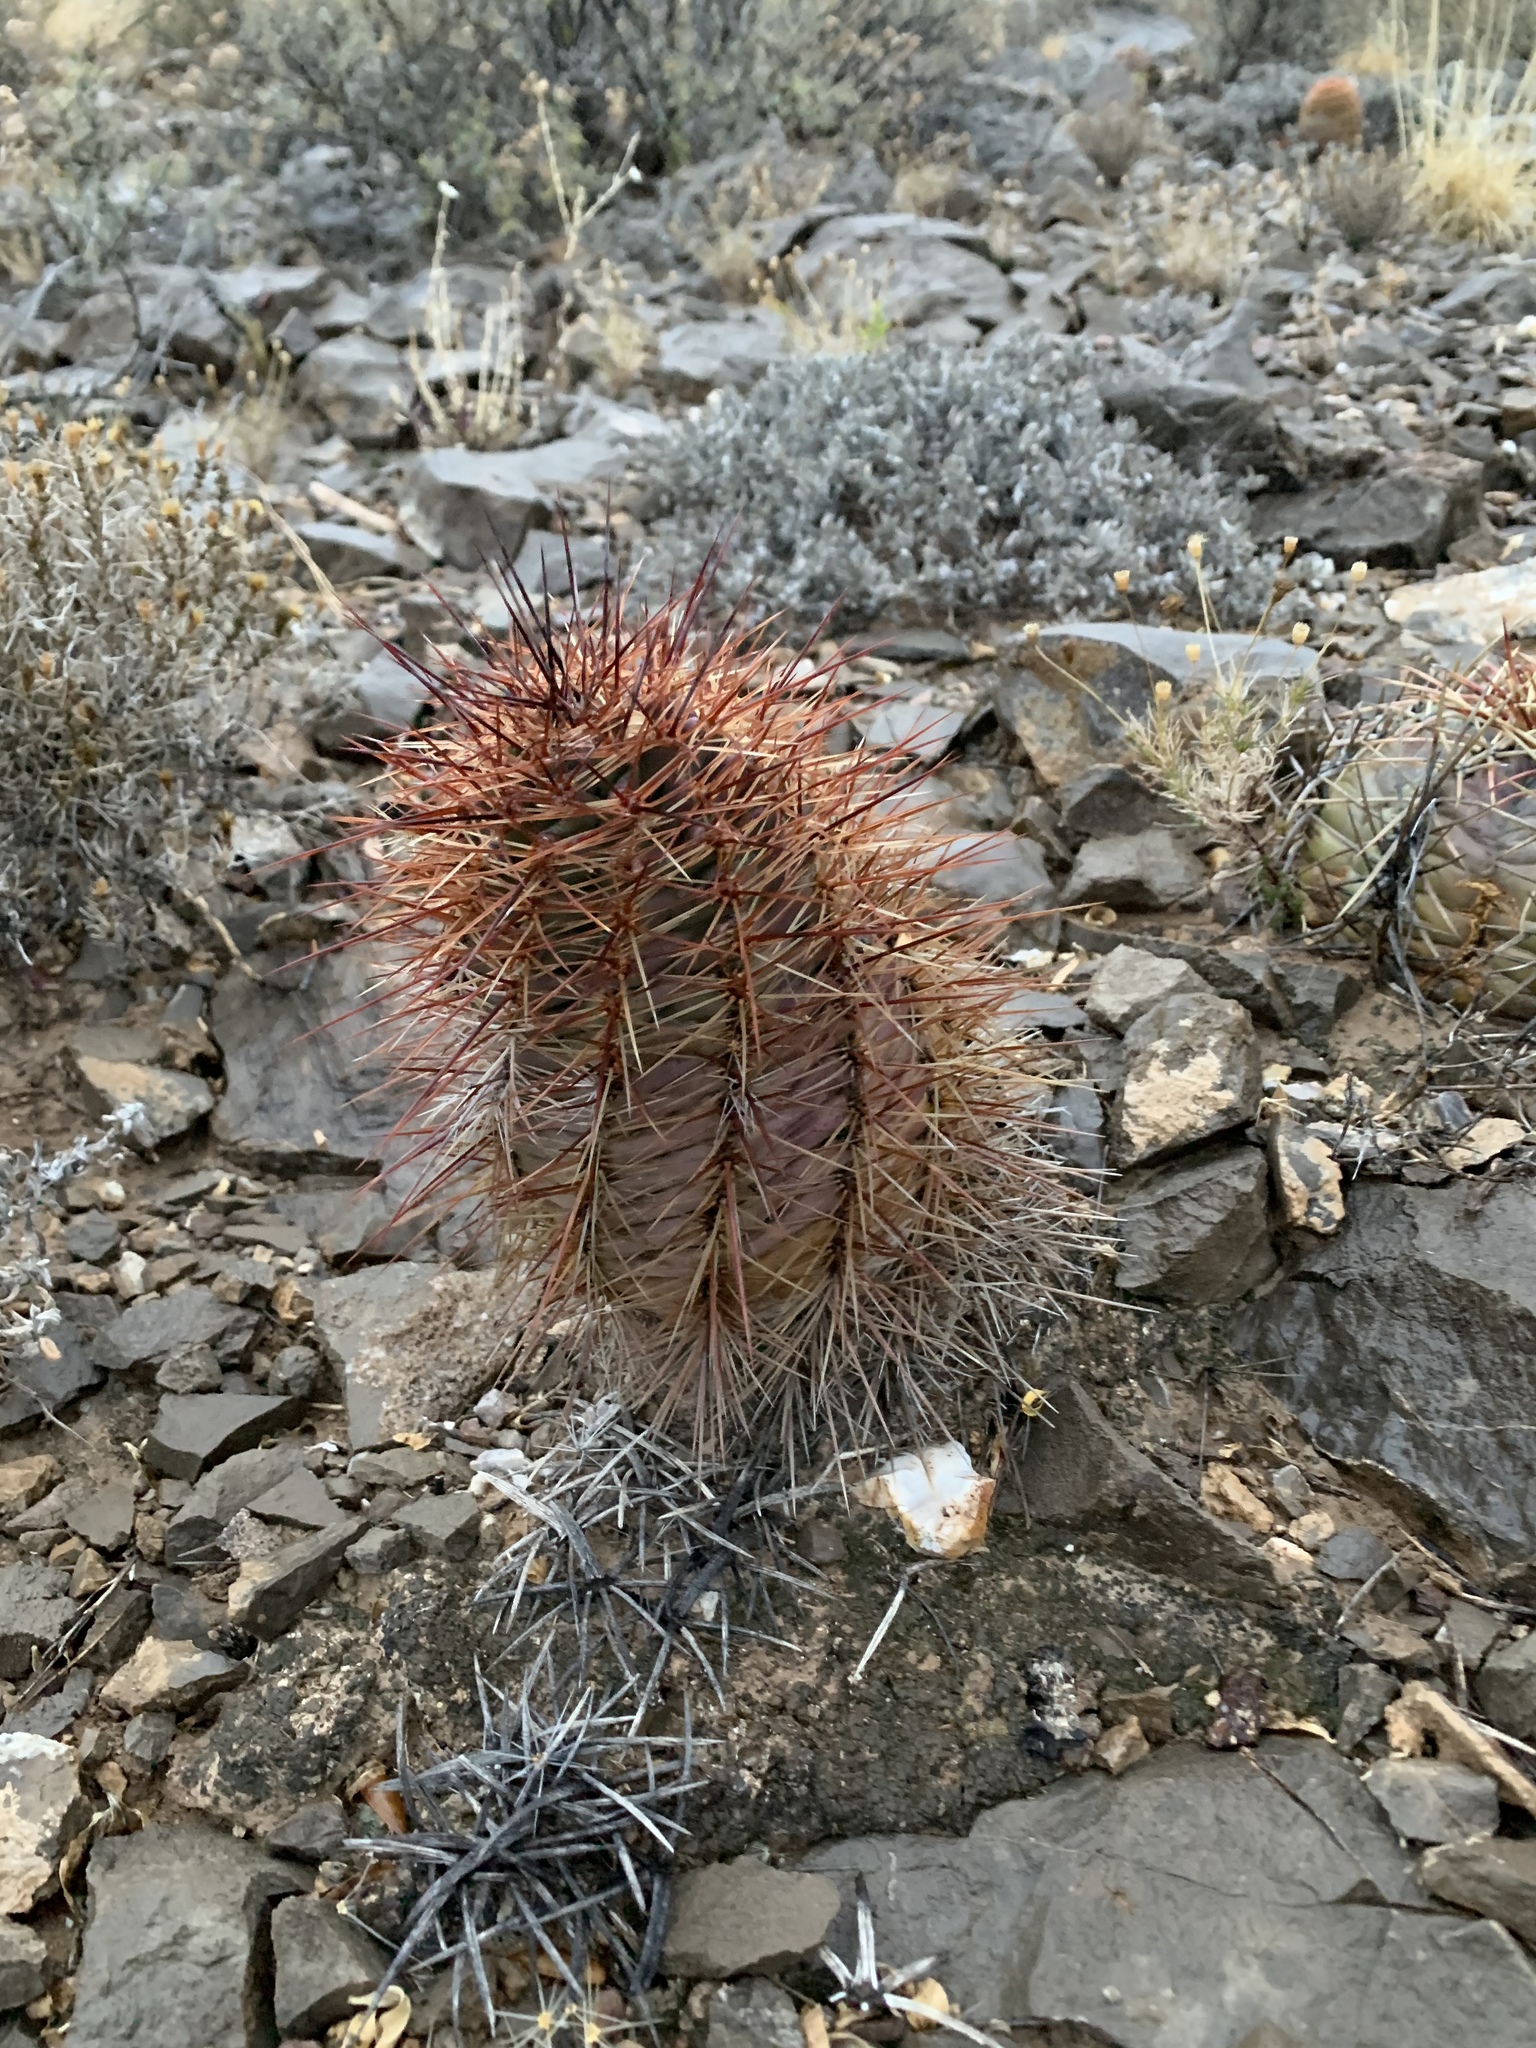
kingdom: Plantae
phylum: Tracheophyta
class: Magnoliopsida
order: Caryophyllales
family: Cactaceae
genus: Echinocereus
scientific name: Echinocereus coccineus
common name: Scarlet hedgehog cactus
